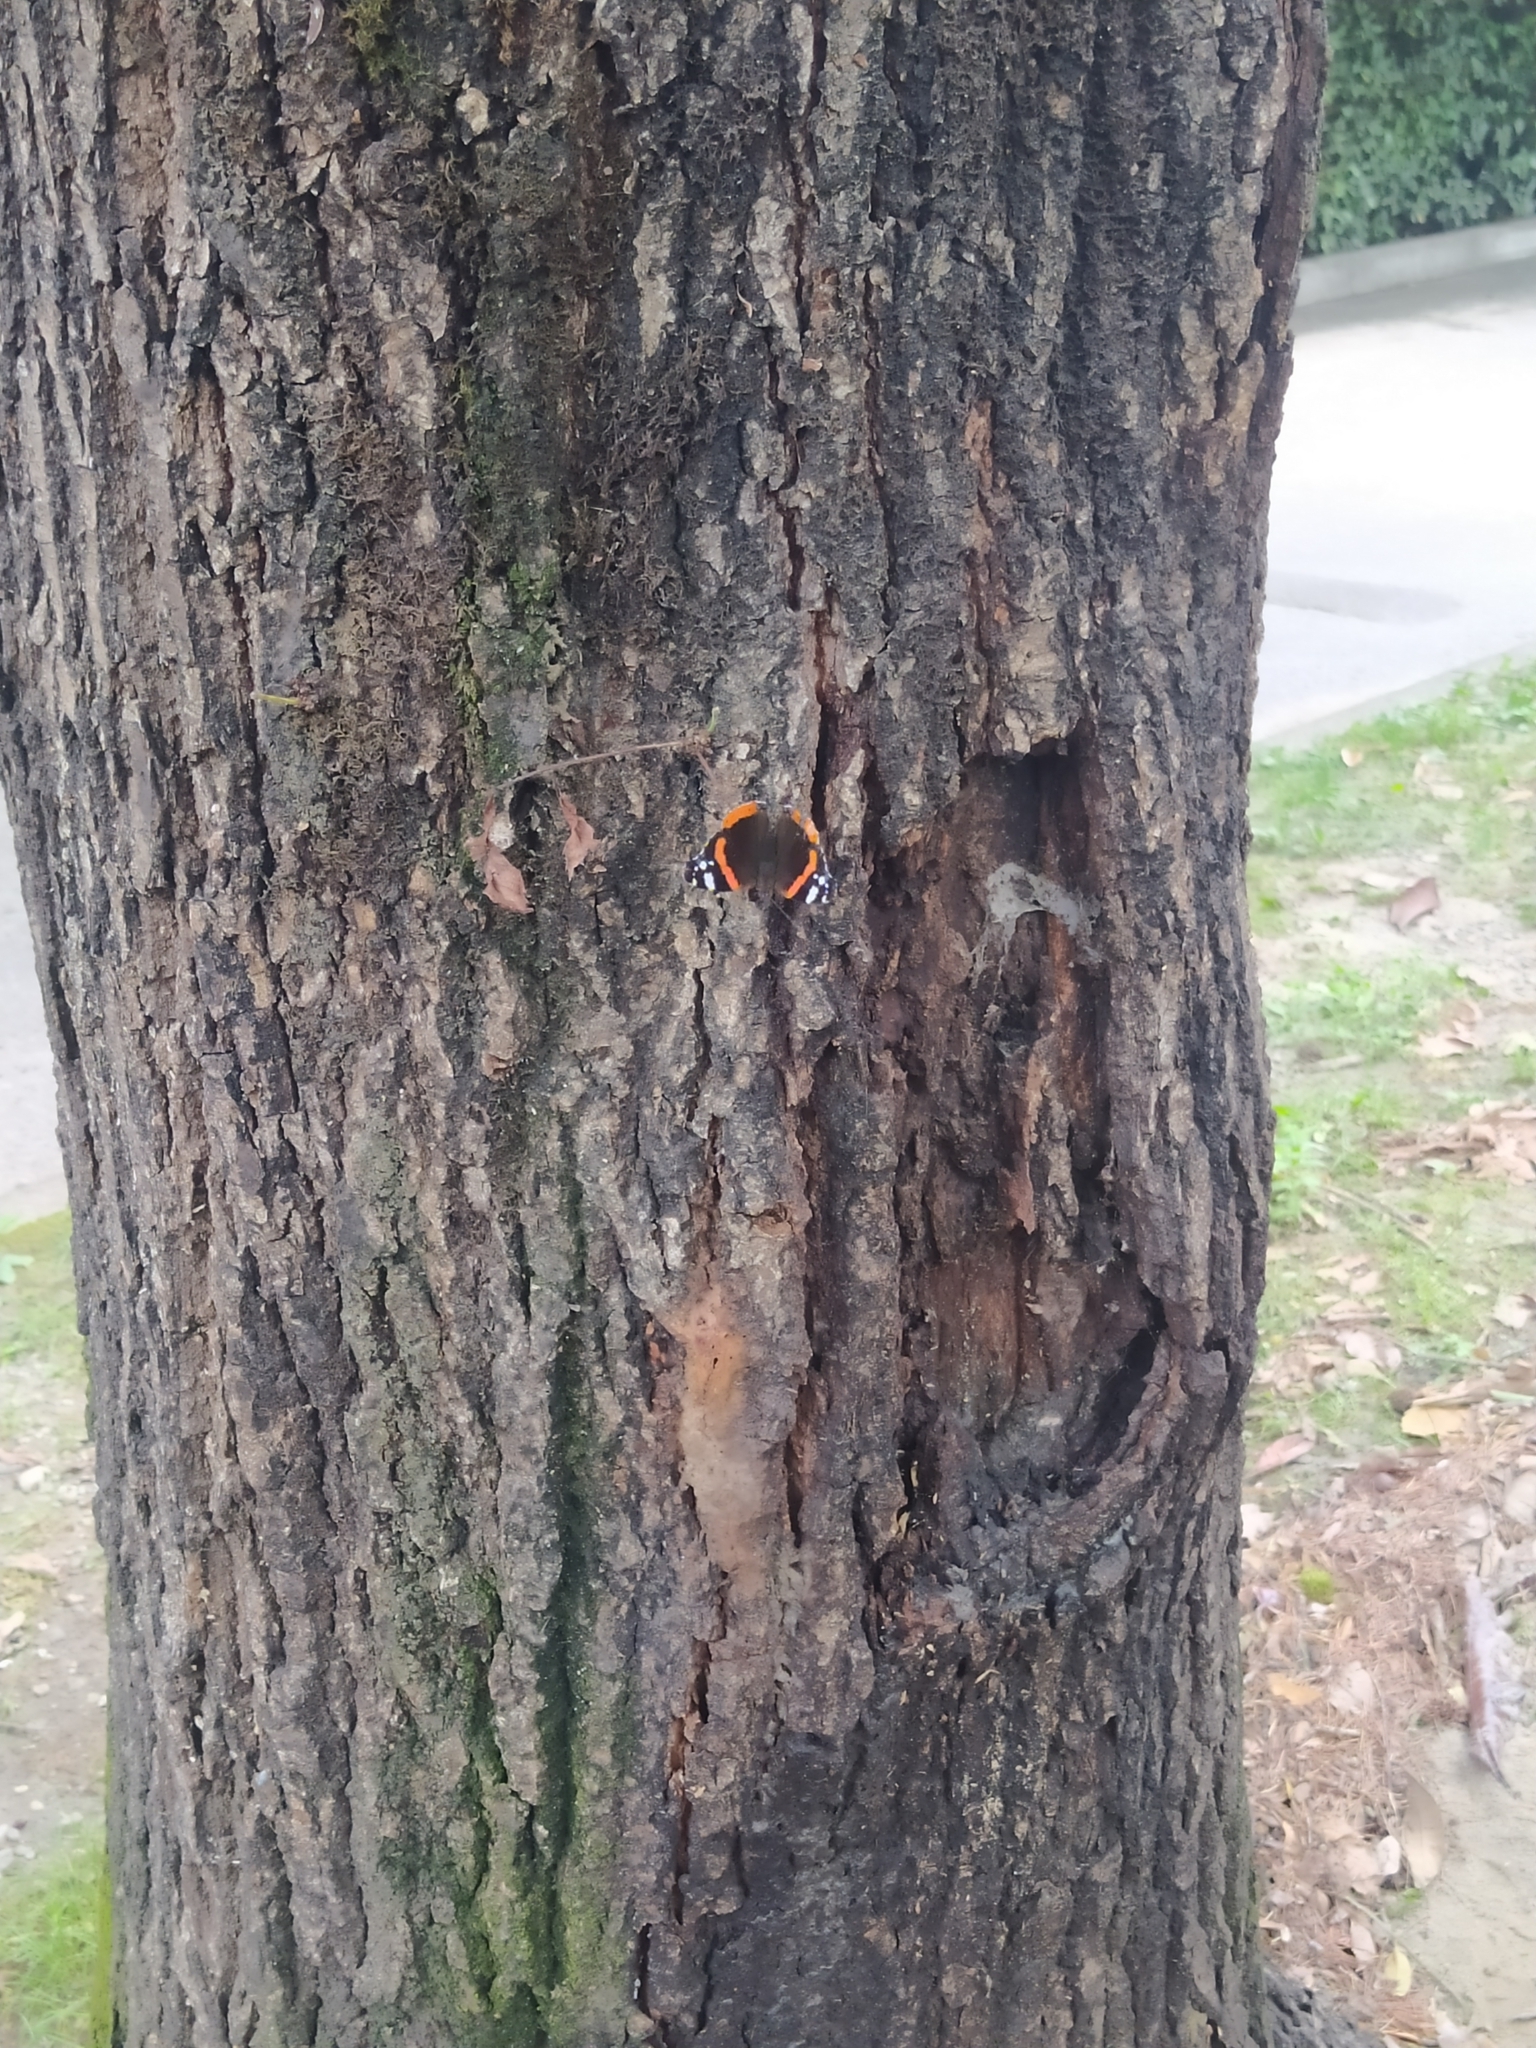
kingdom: Animalia
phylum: Arthropoda
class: Insecta
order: Lepidoptera
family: Nymphalidae
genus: Vanessa
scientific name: Vanessa atalanta
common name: Red admiral
